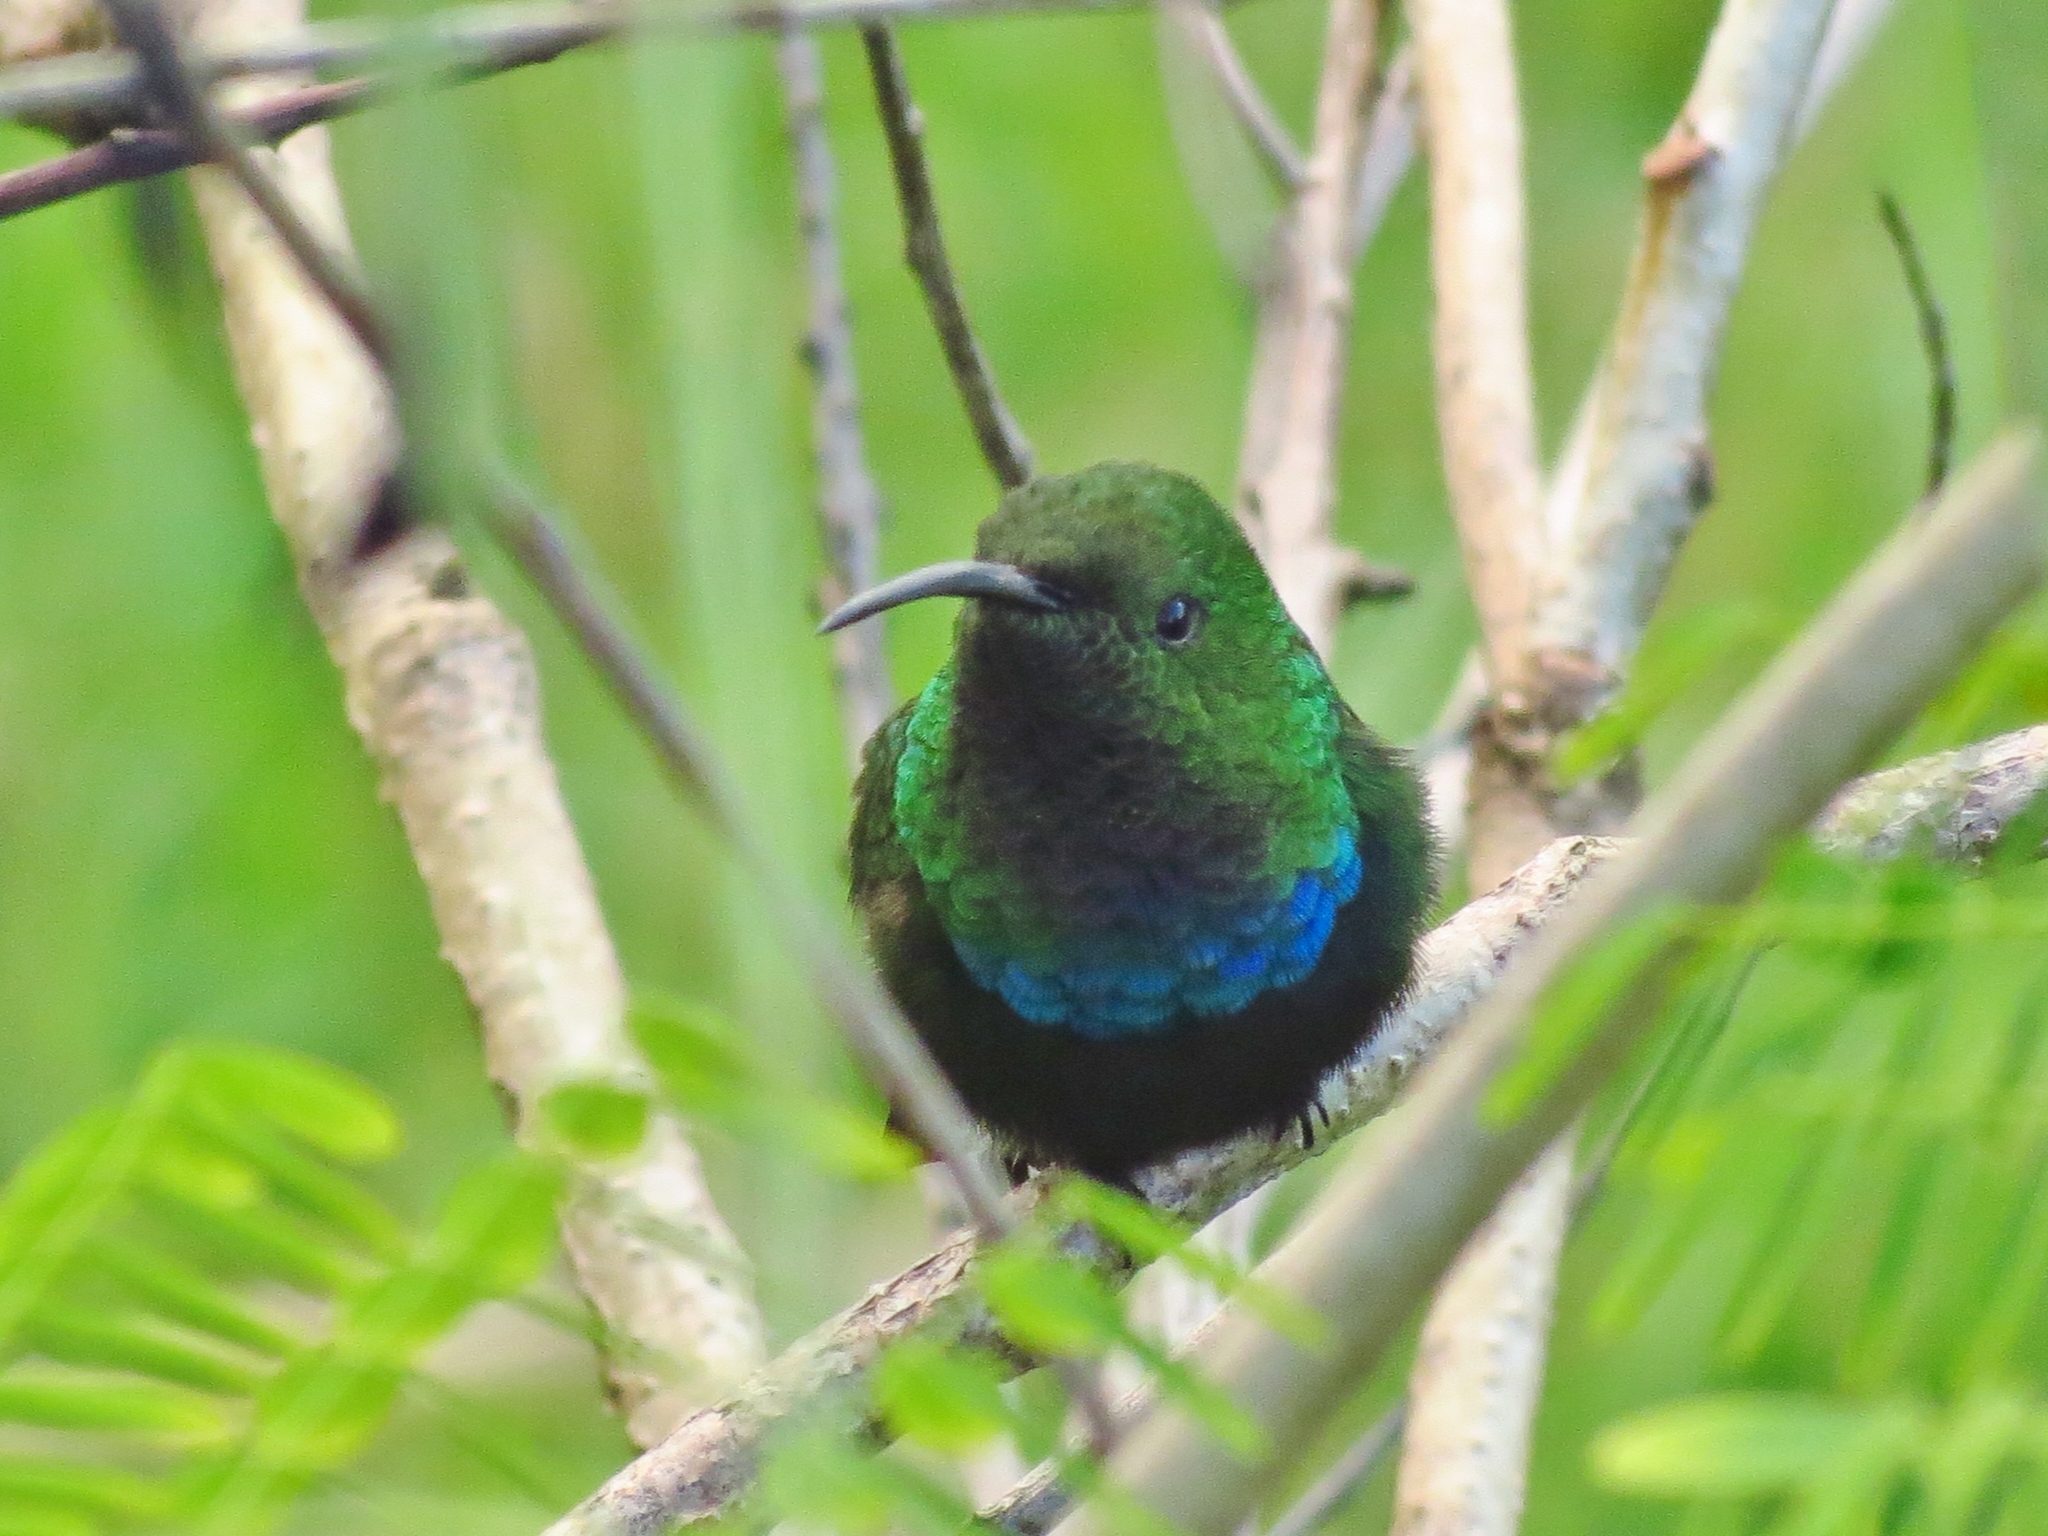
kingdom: Animalia
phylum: Chordata
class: Aves
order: Apodiformes
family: Trochilidae
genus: Eulampis
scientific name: Eulampis holosericeus
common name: Green-throated carib
